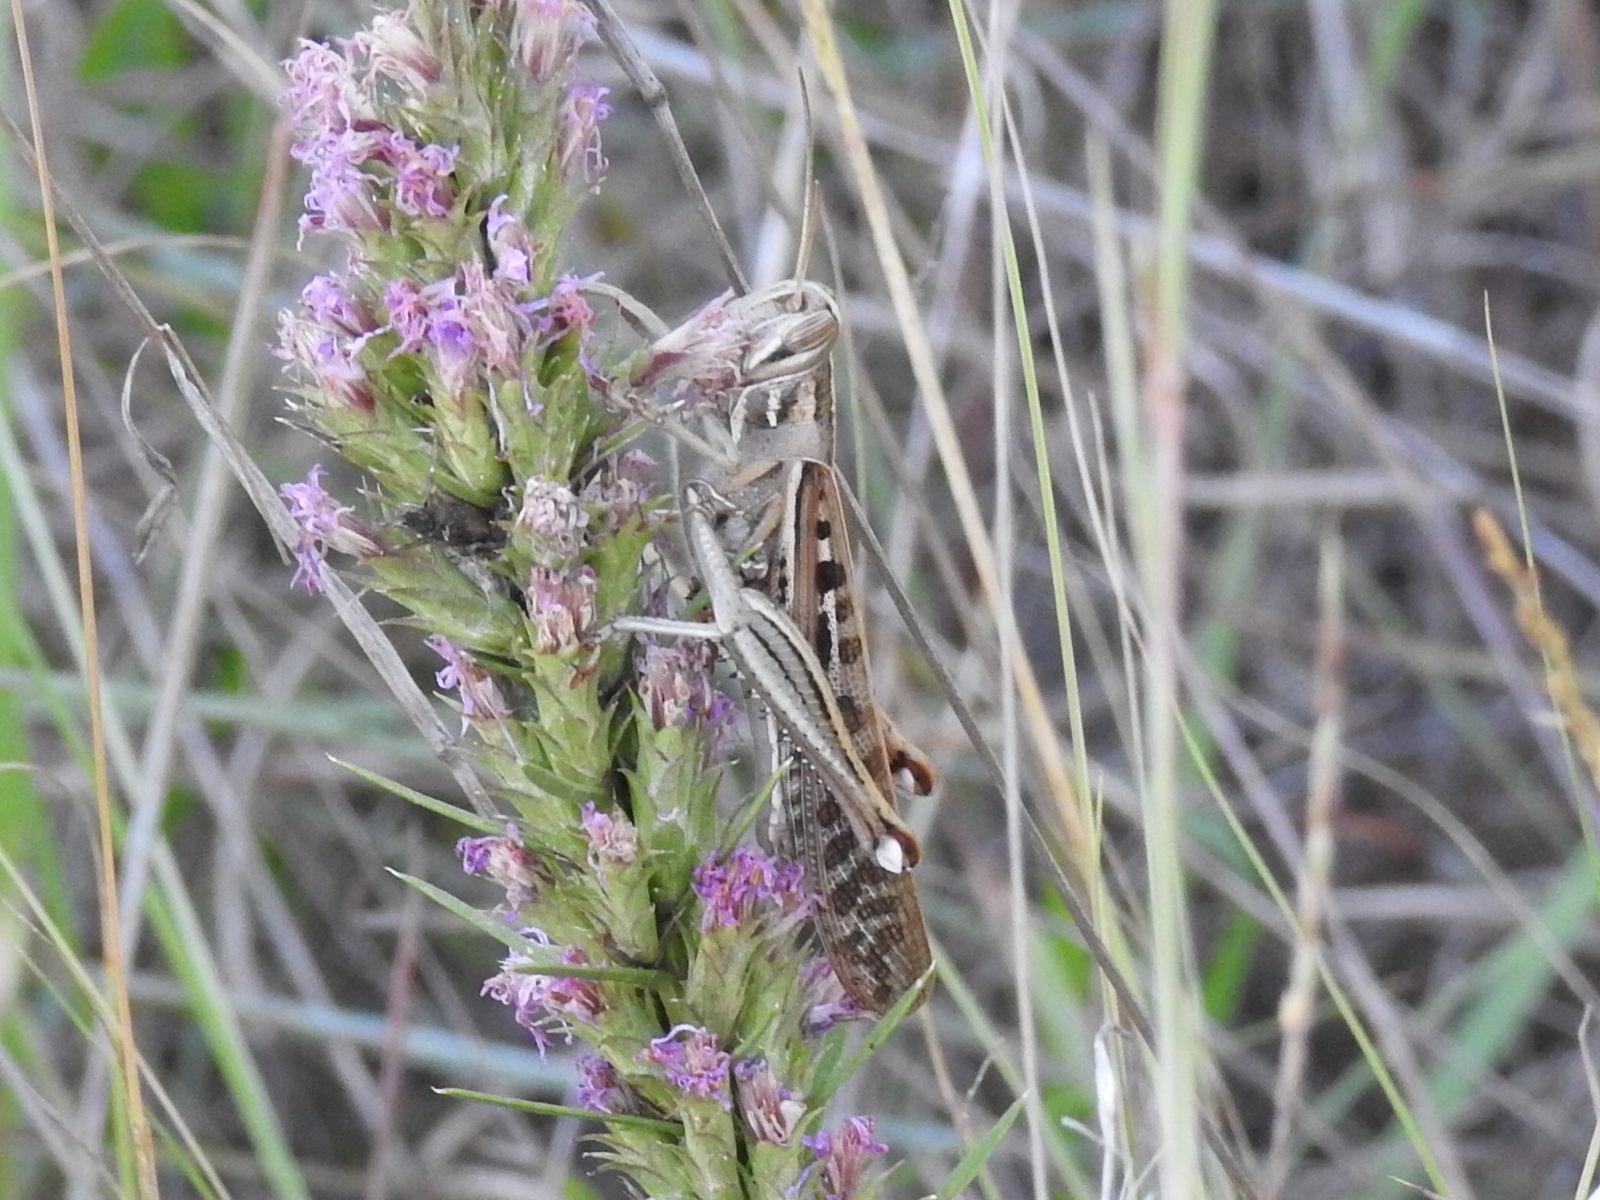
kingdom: Animalia
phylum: Arthropoda
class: Insecta
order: Orthoptera
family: Acrididae
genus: Schistocerca
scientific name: Schistocerca americana
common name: American bird locust
